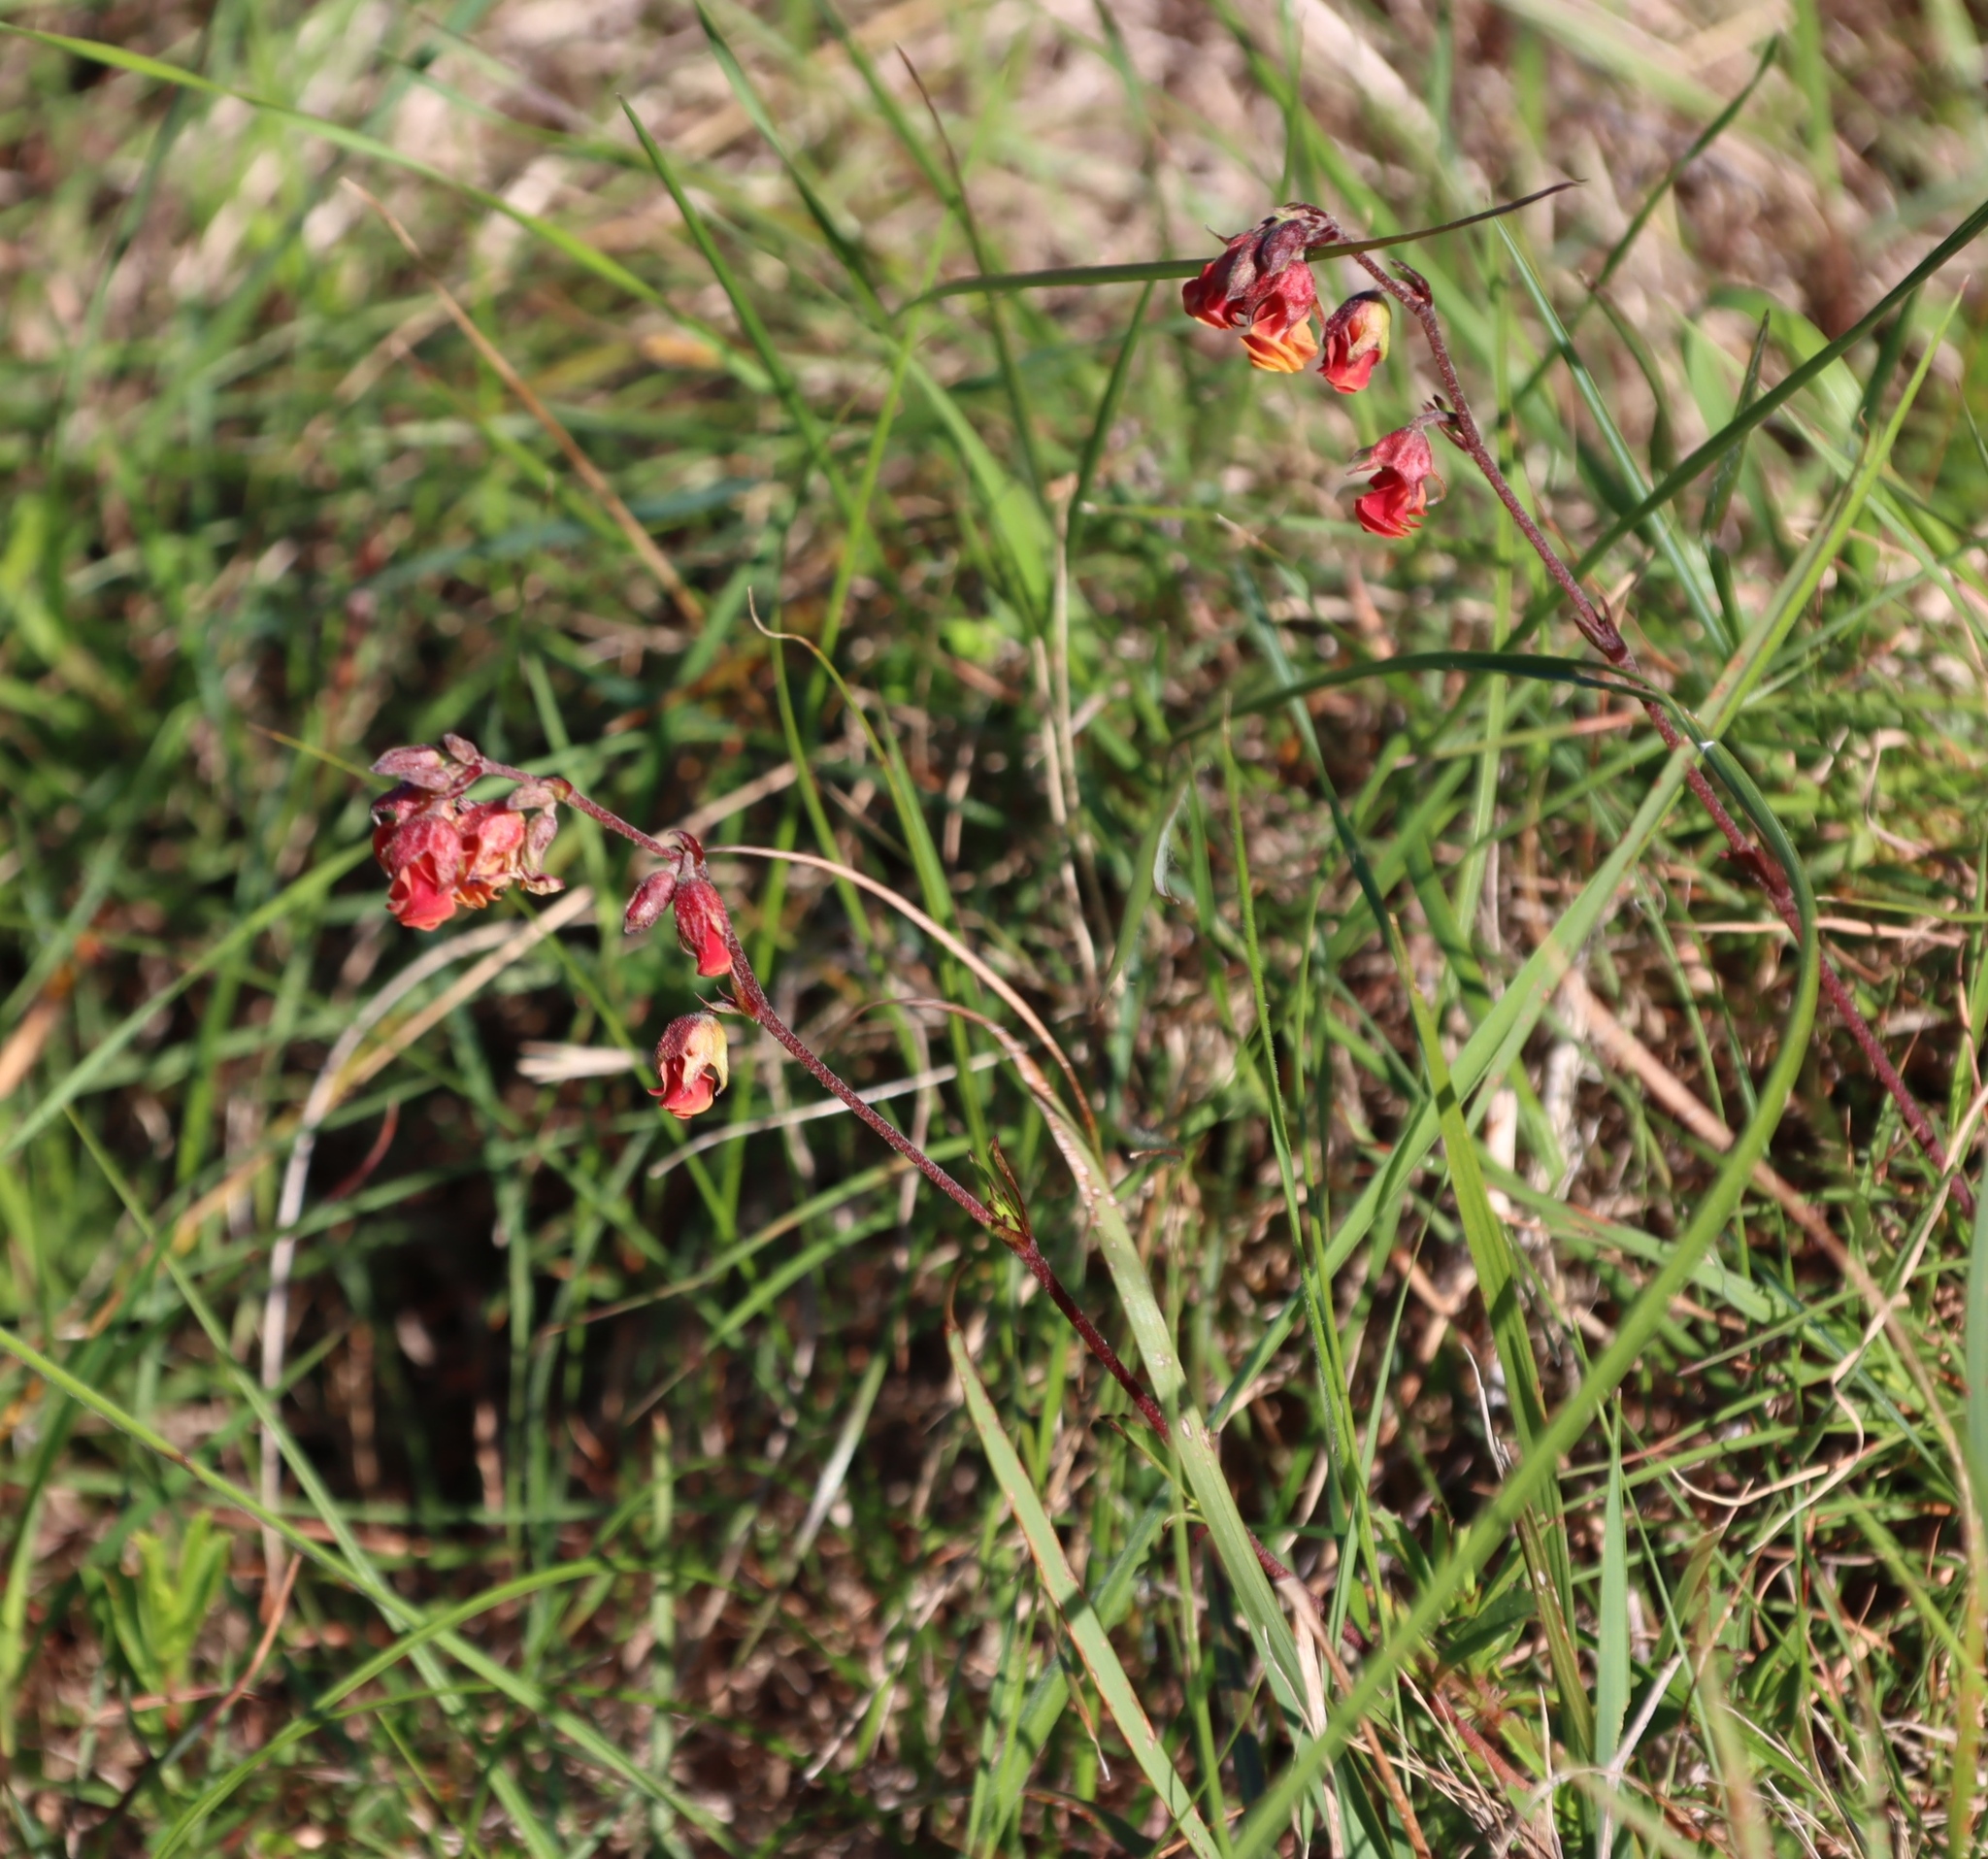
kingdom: Plantae
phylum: Tracheophyta
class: Magnoliopsida
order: Malvales
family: Malvaceae
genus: Hermannia
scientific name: Hermannia flammea
